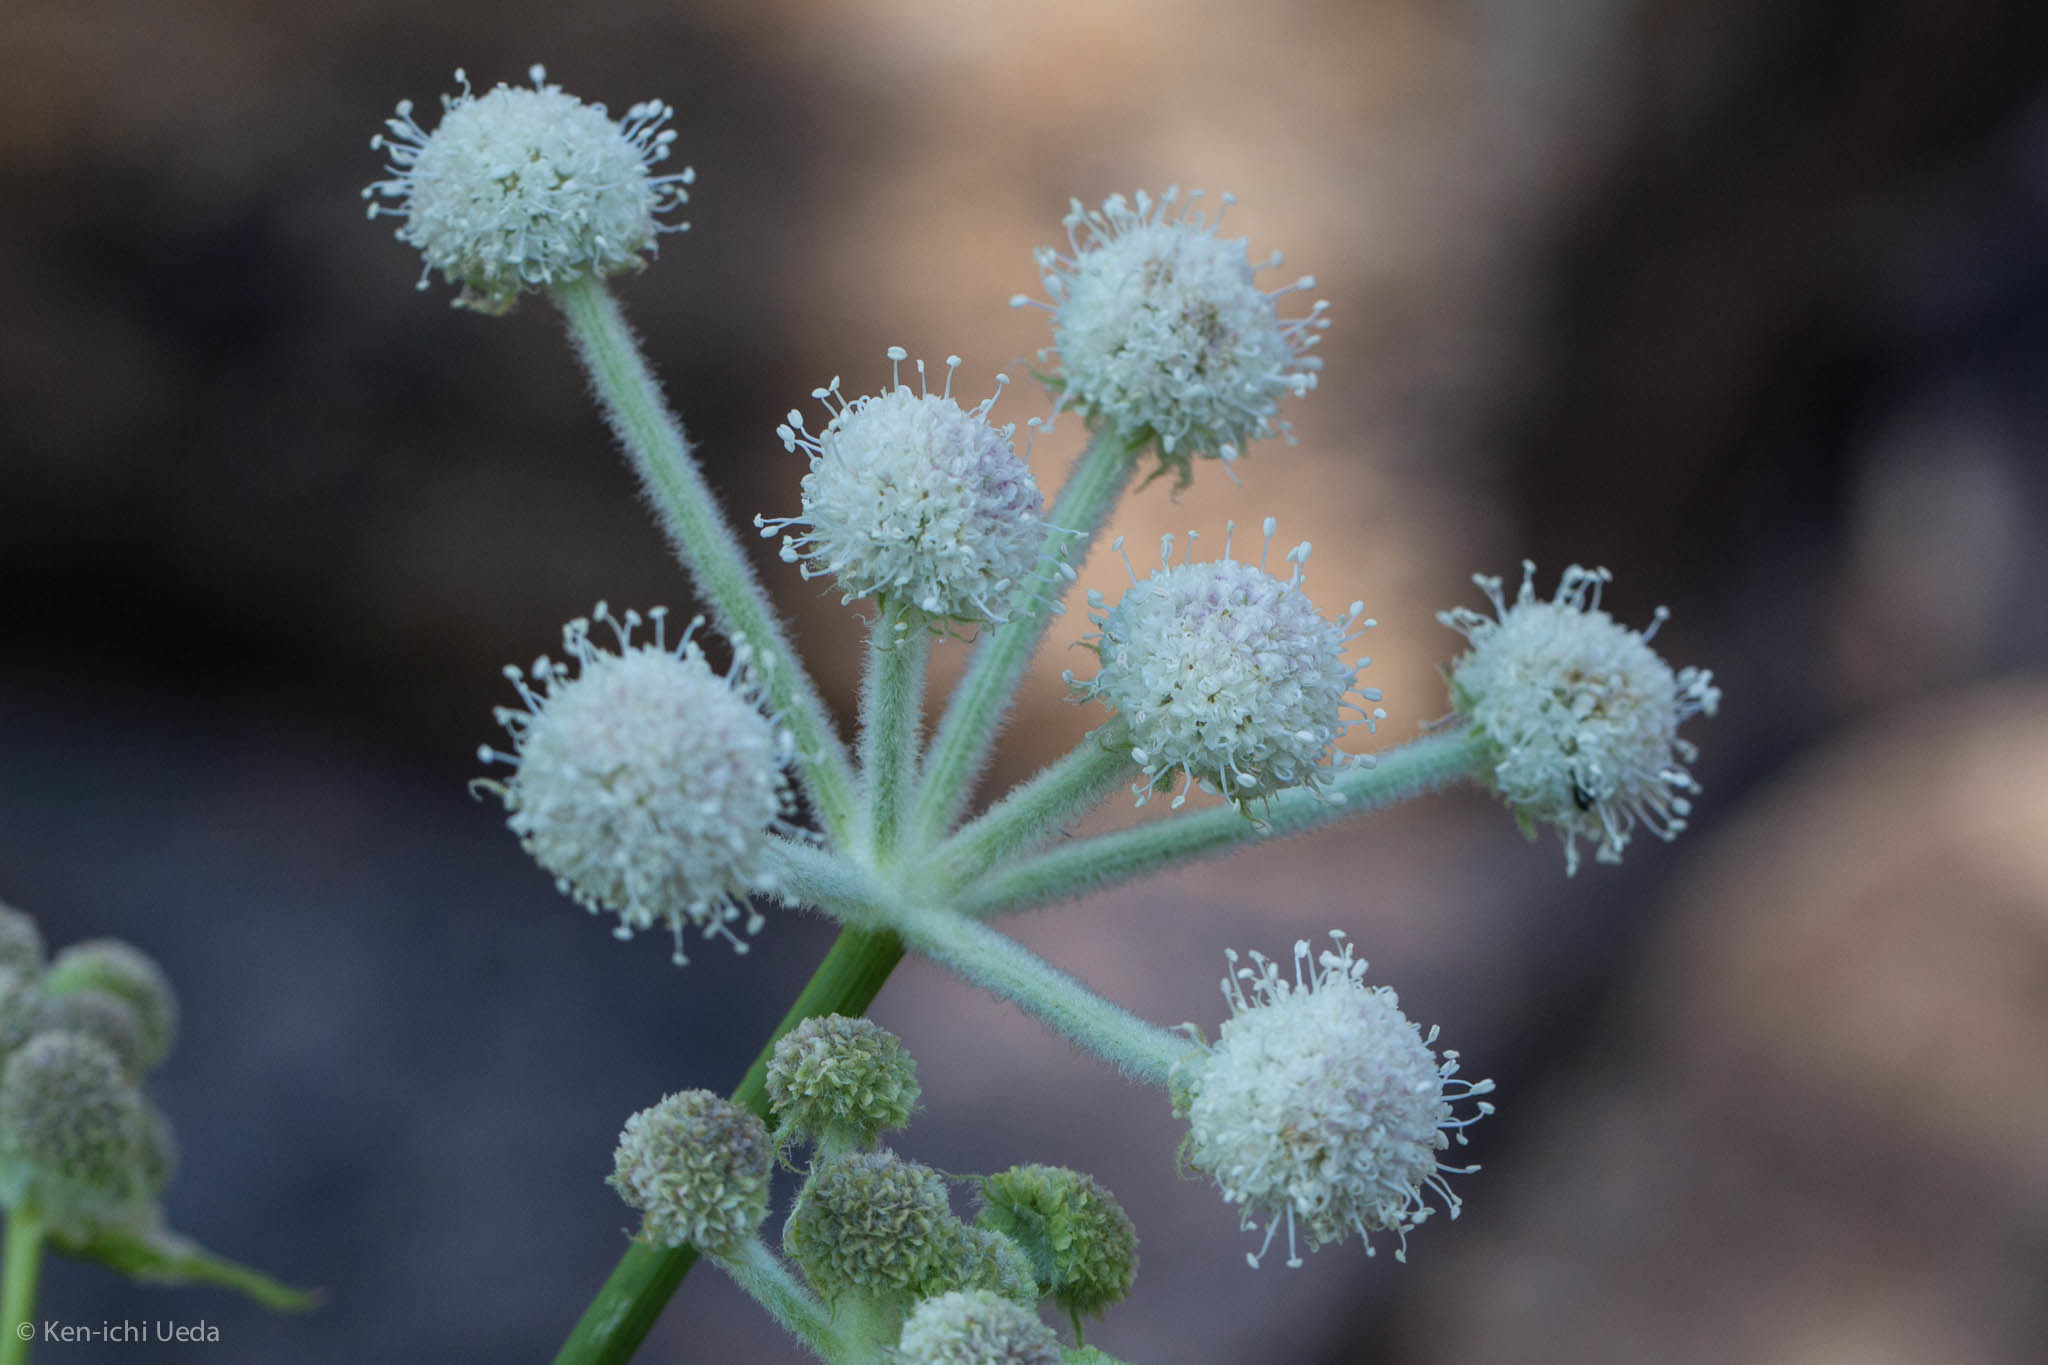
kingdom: Plantae
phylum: Tracheophyta
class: Magnoliopsida
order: Apiales
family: Apiaceae
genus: Angelica
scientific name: Angelica capitellata
